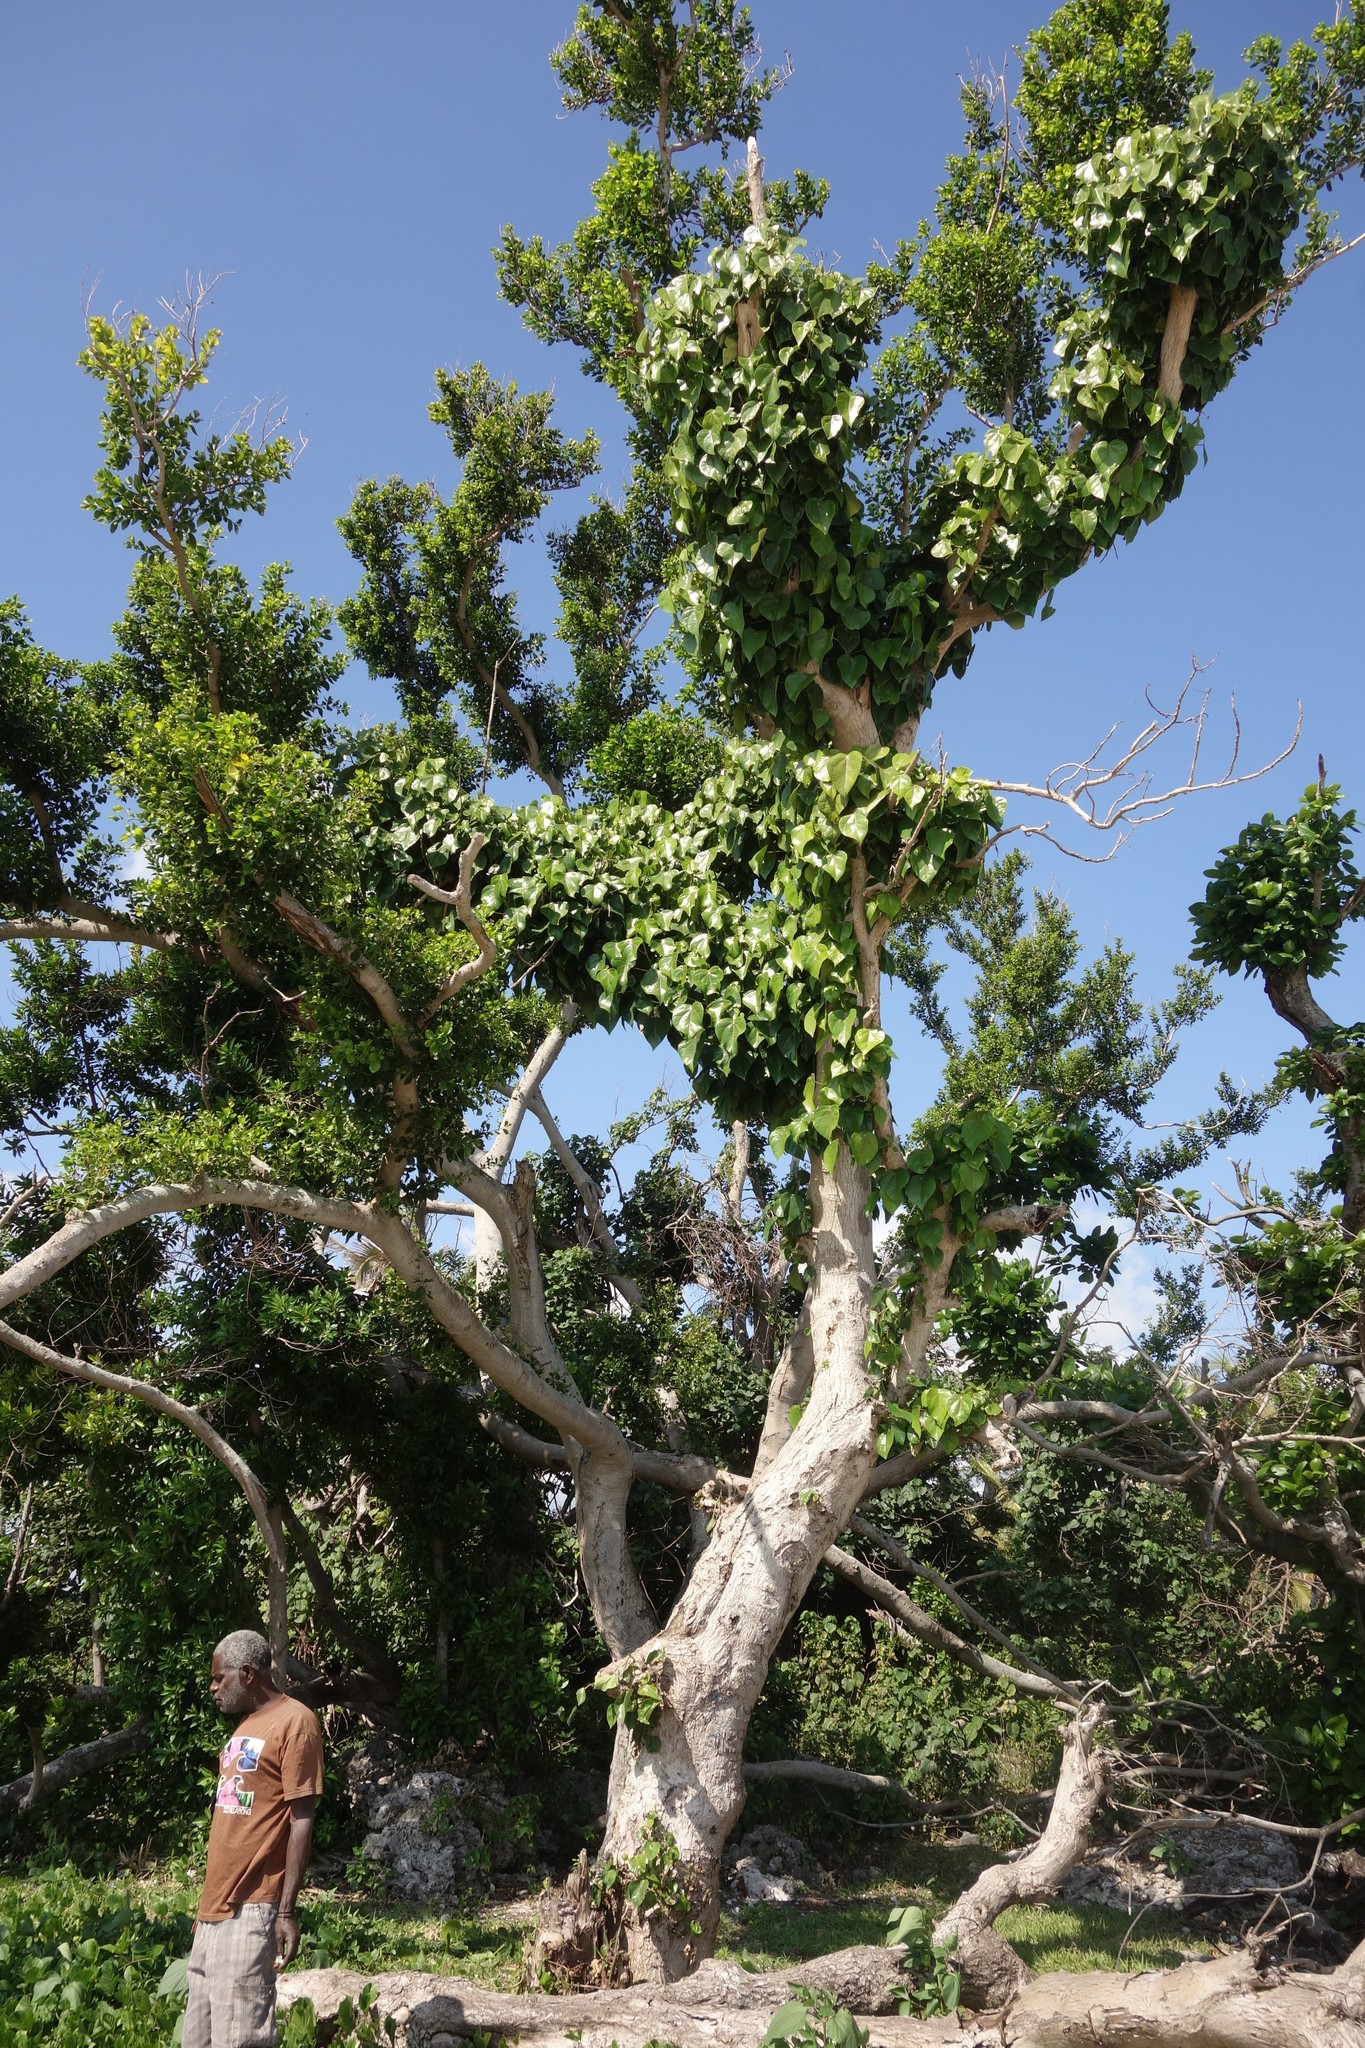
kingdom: Plantae
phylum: Tracheophyta
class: Magnoliopsida
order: Laurales
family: Hernandiaceae
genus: Hernandia
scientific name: Hernandia nymphaeifolia
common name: Sea hearse
